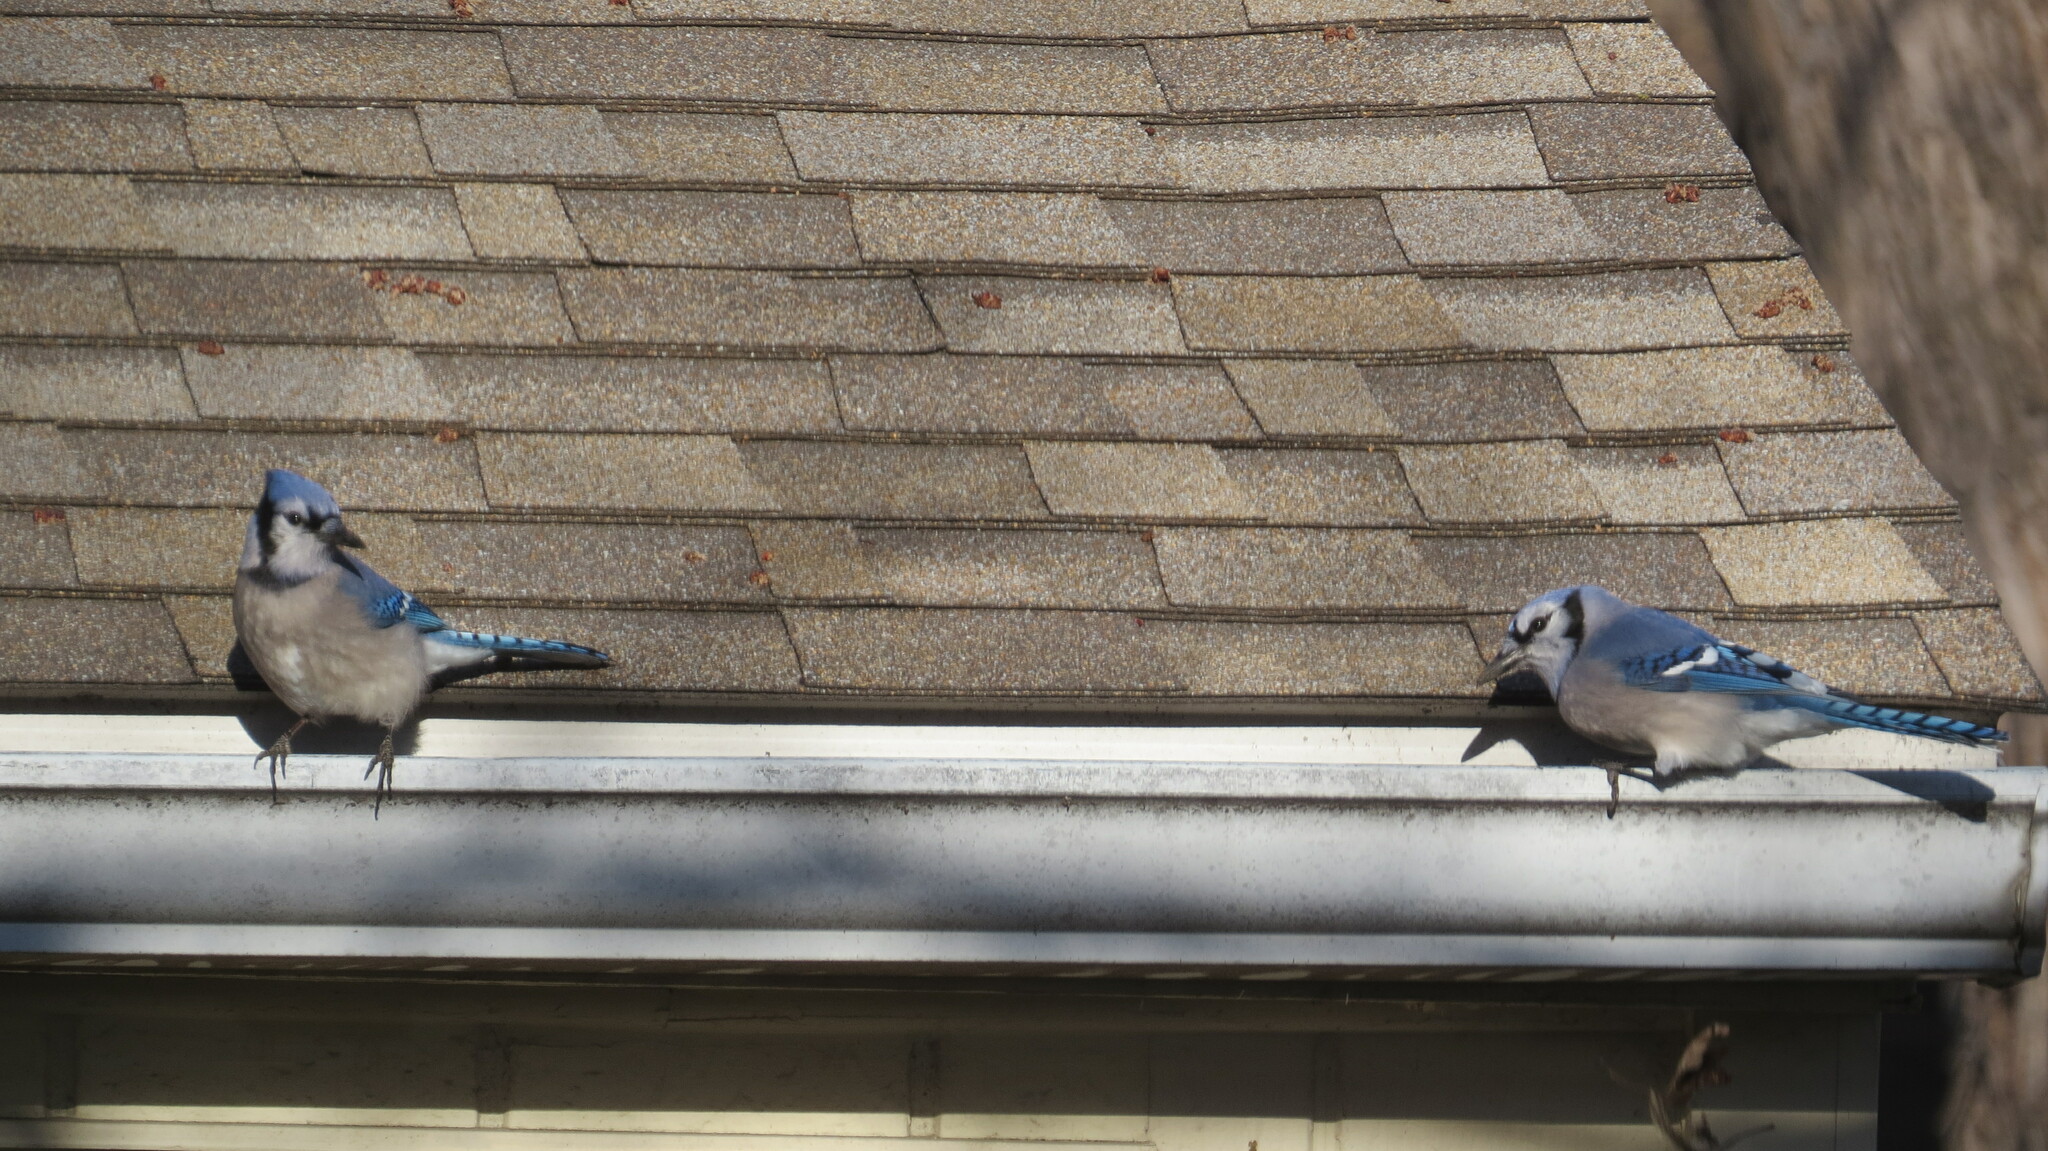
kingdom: Animalia
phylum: Chordata
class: Aves
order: Passeriformes
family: Corvidae
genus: Cyanocitta
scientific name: Cyanocitta cristata
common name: Blue jay
